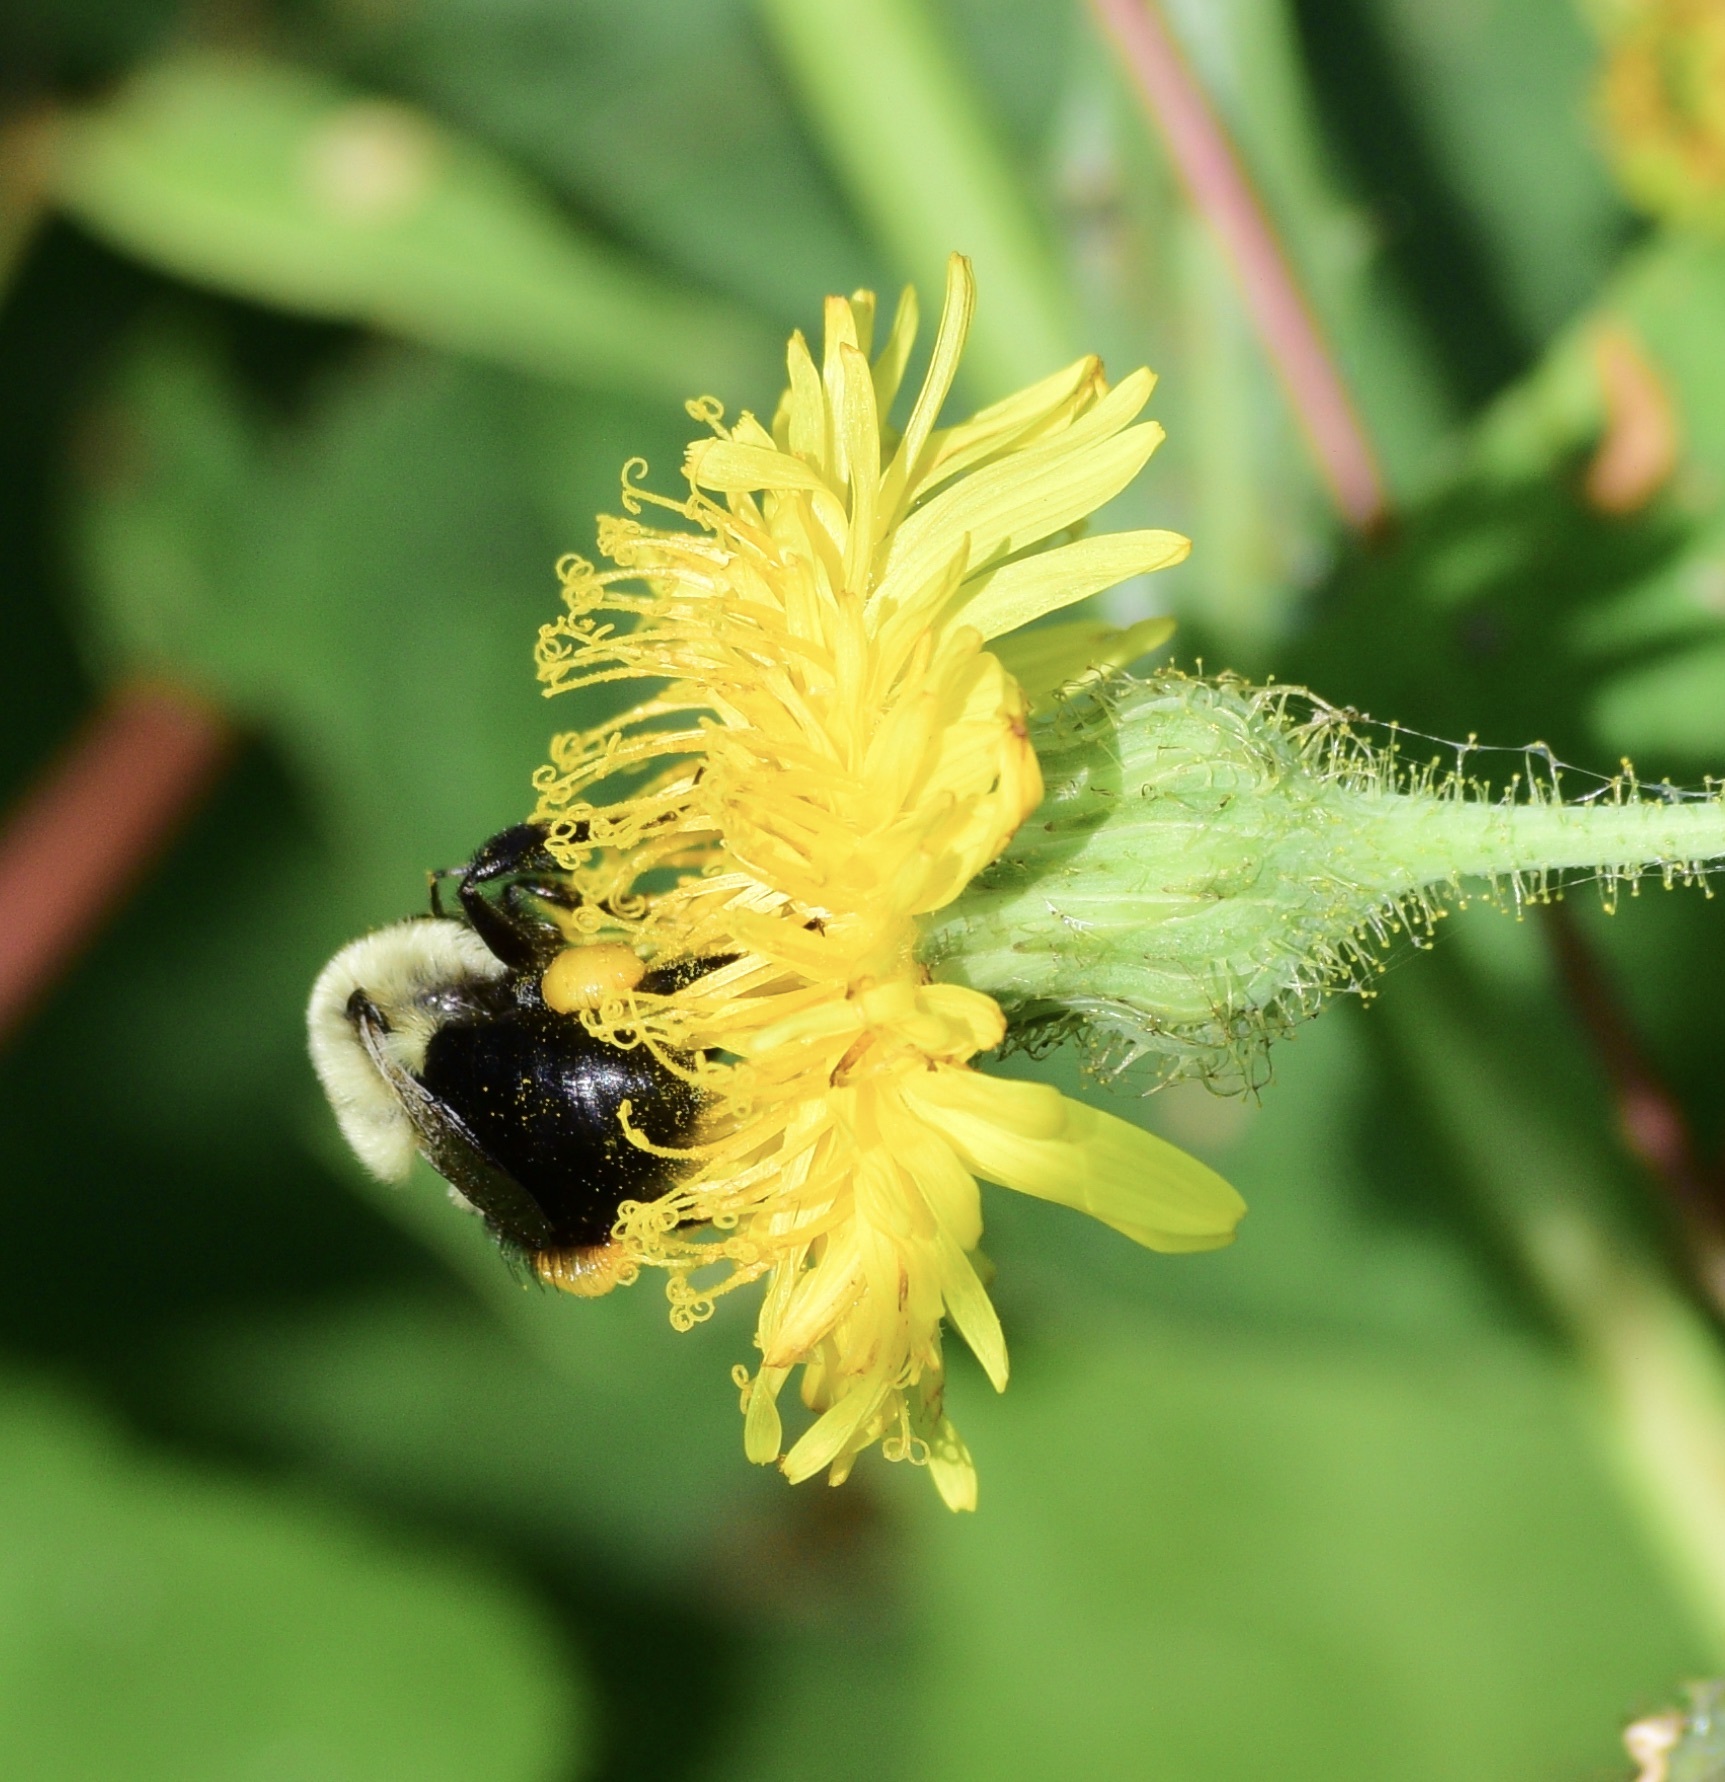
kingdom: Animalia
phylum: Arthropoda
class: Insecta
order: Hymenoptera
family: Apidae
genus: Bombus
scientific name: Bombus impatiens
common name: Common eastern bumble bee
